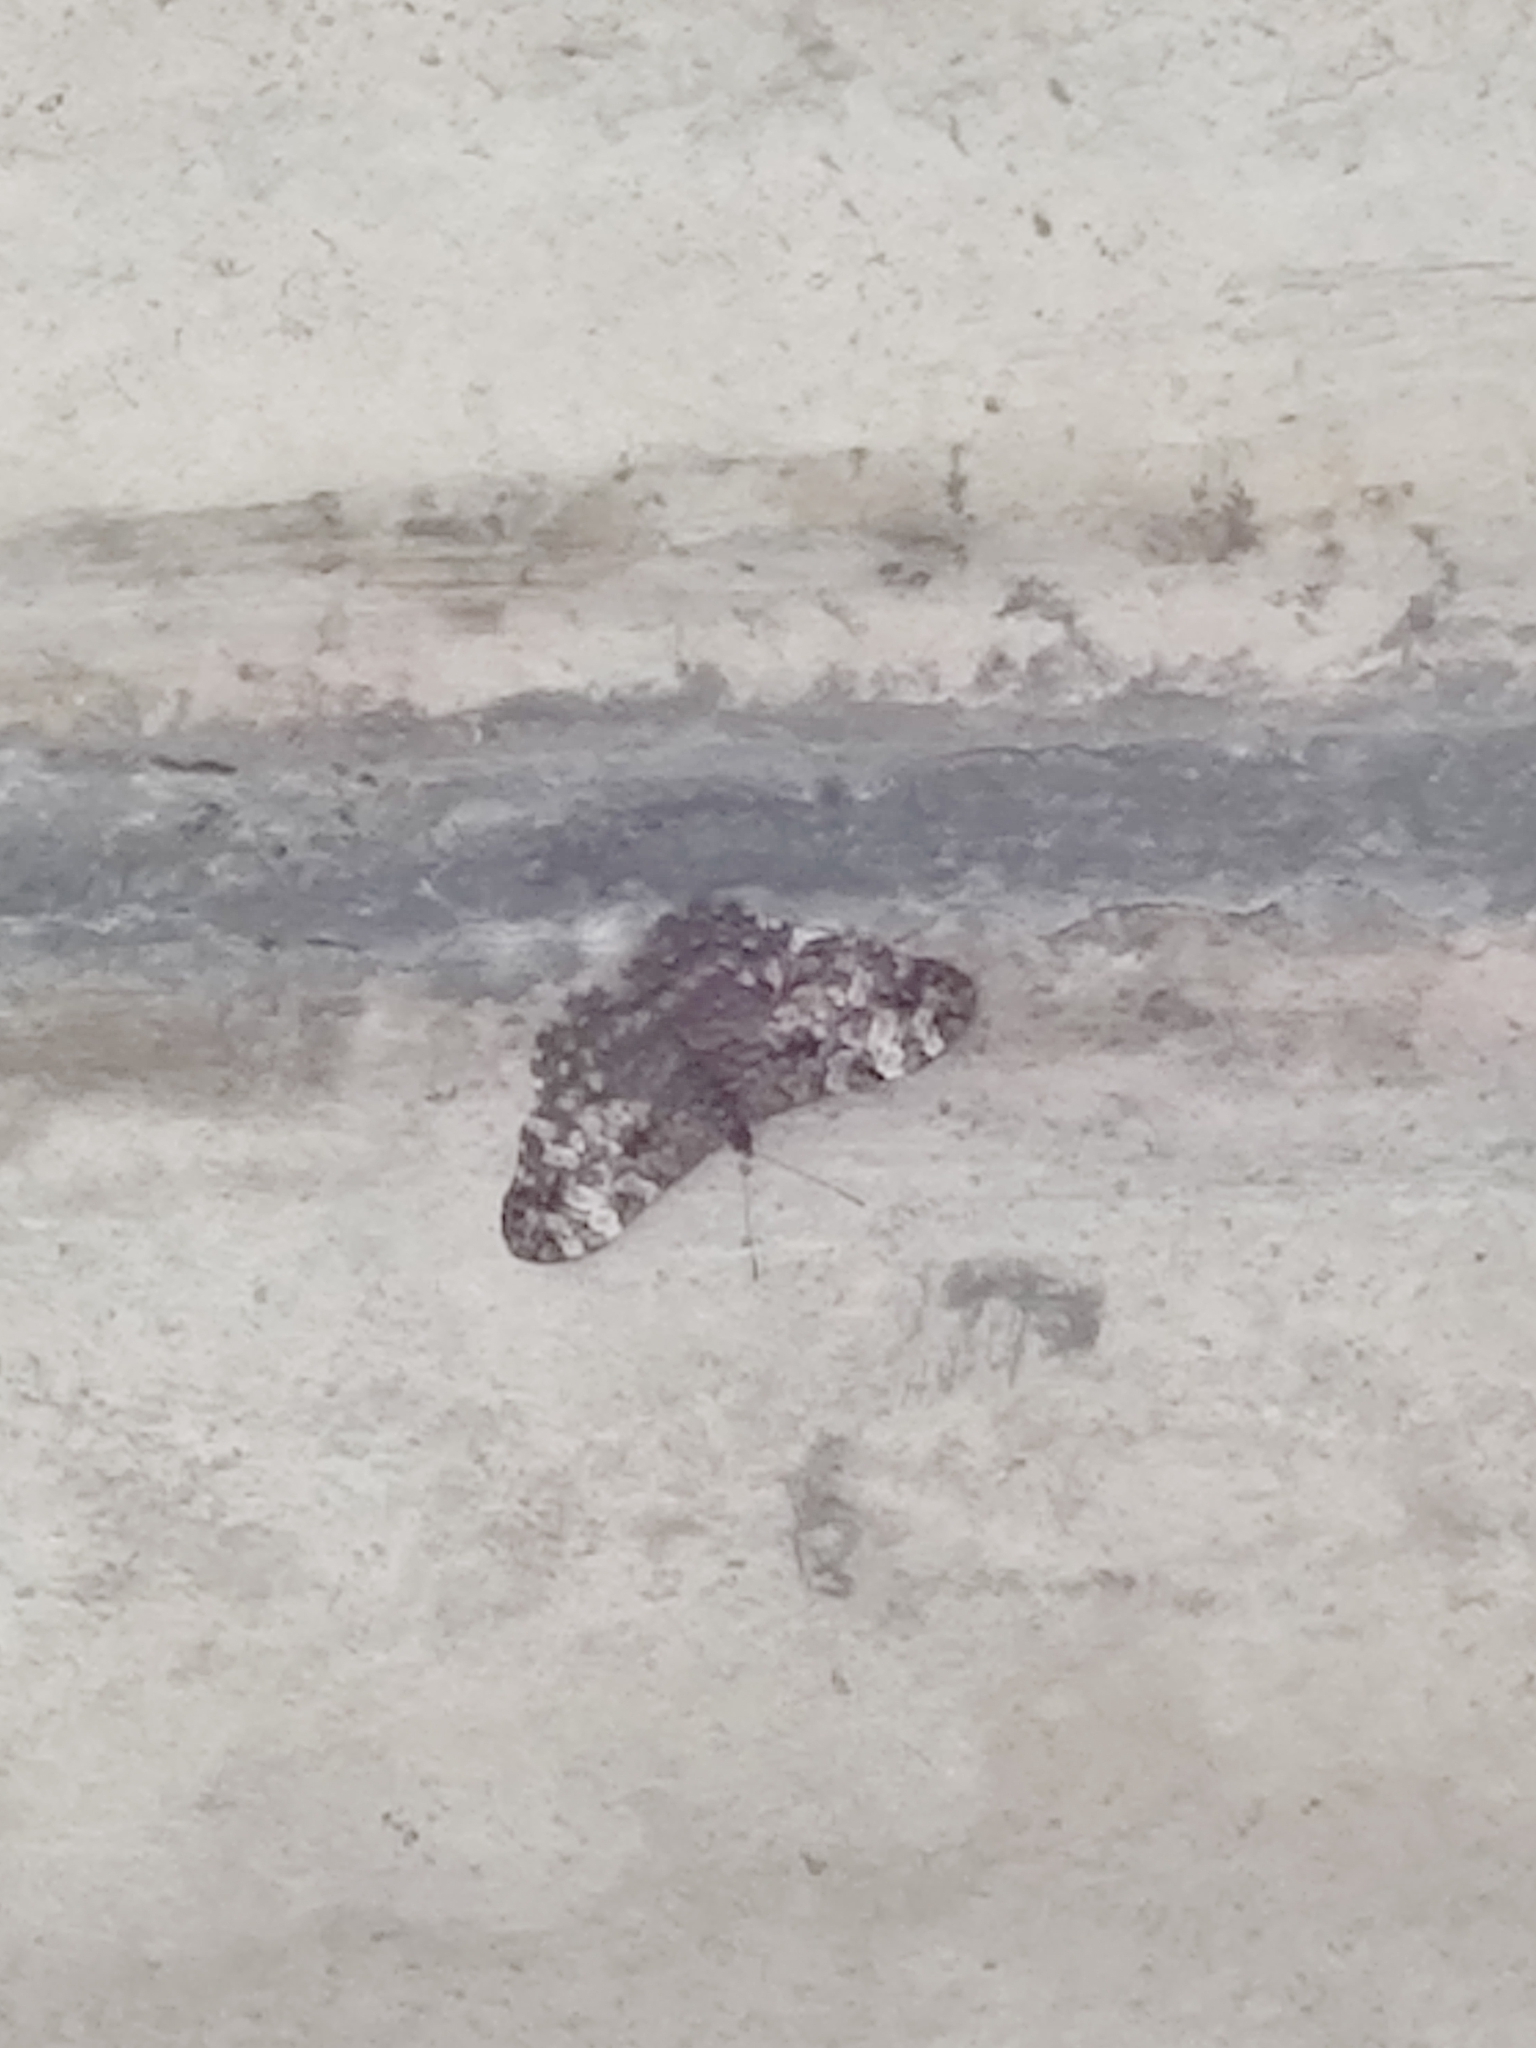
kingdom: Animalia
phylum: Arthropoda
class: Insecta
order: Lepidoptera
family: Nymphalidae
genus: Hamadryas
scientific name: Hamadryas epinome
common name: Epinome cracker
